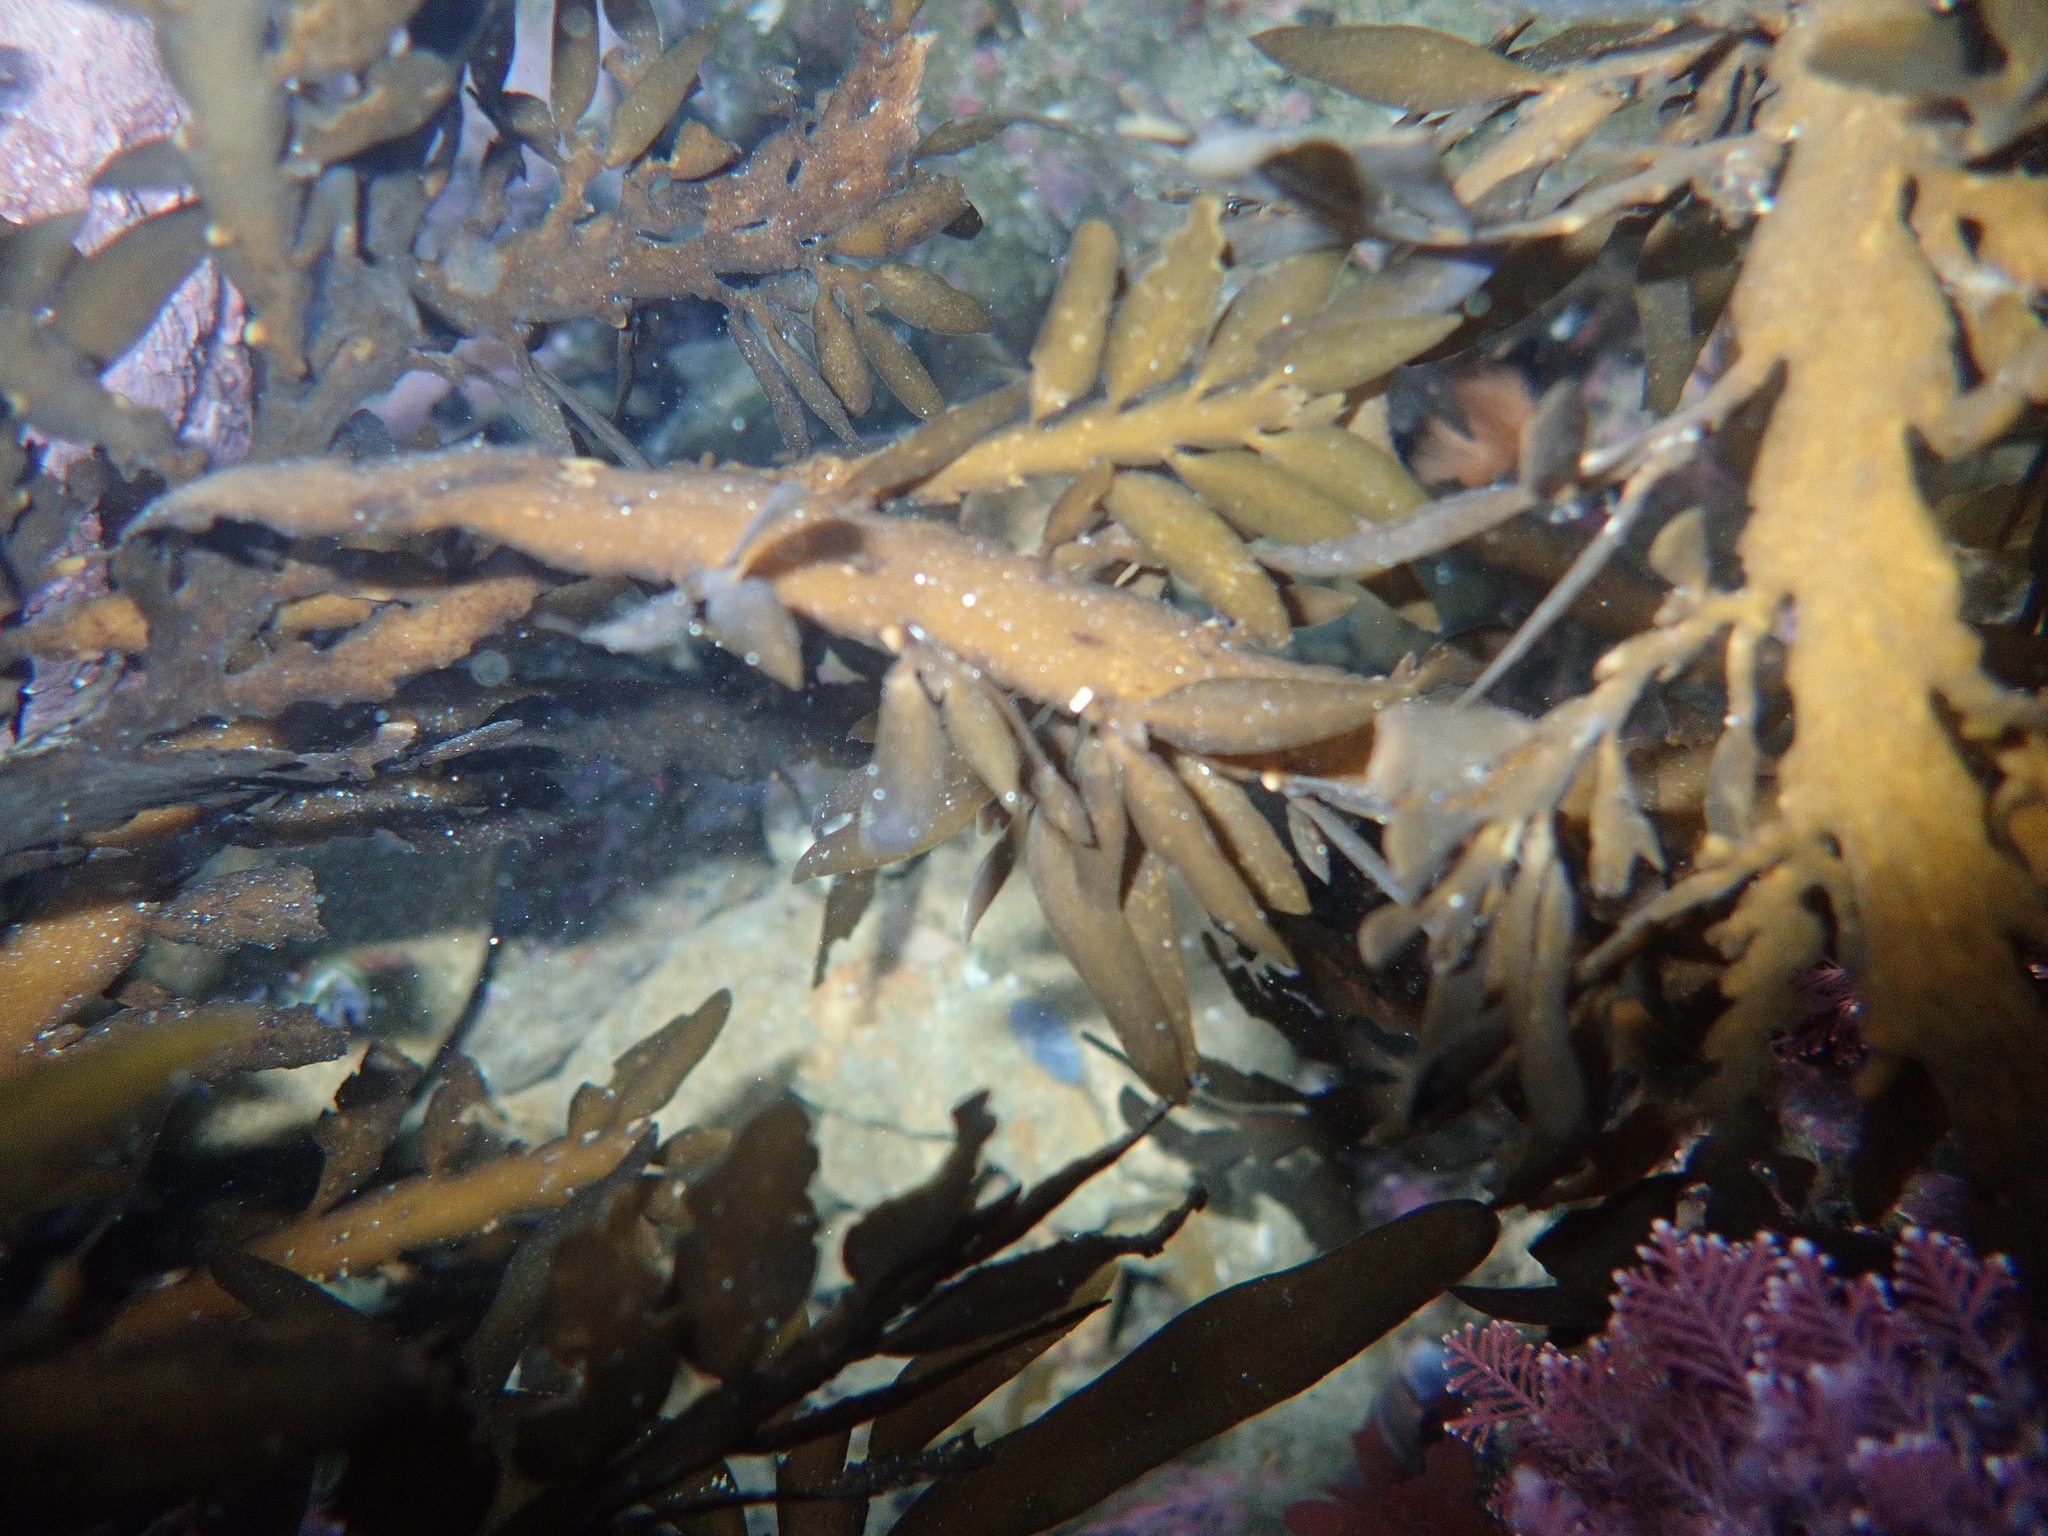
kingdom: Chromista
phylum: Ochrophyta
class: Phaeophyceae
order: Fucales
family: Sargassaceae
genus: Carpophyllum
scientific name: Carpophyllum maschalocarpum
